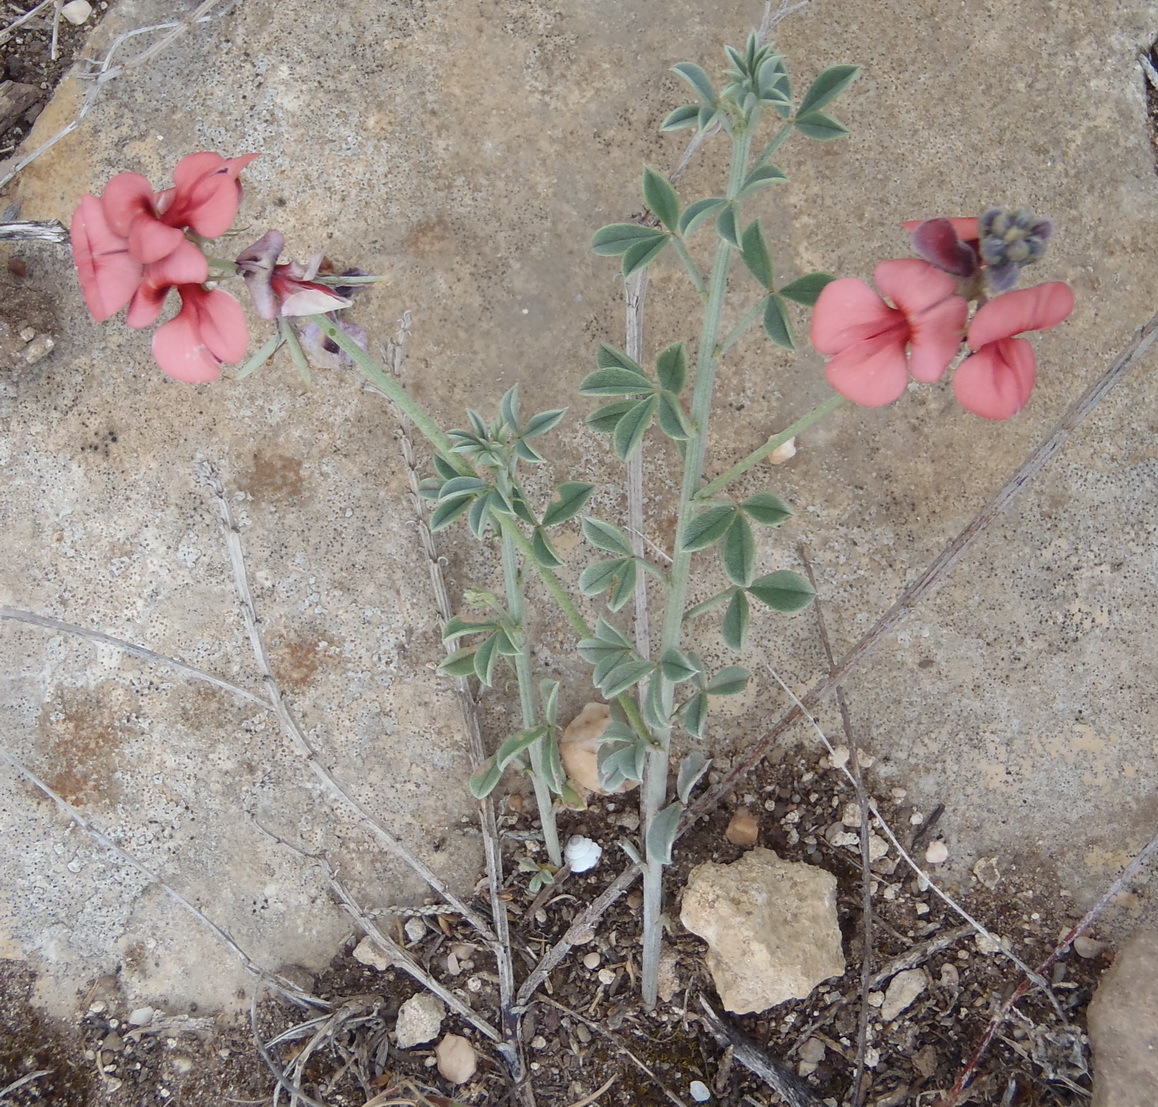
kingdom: Plantae
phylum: Tracheophyta
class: Magnoliopsida
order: Fabales
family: Fabaceae
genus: Indigofera
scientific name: Indigofera
